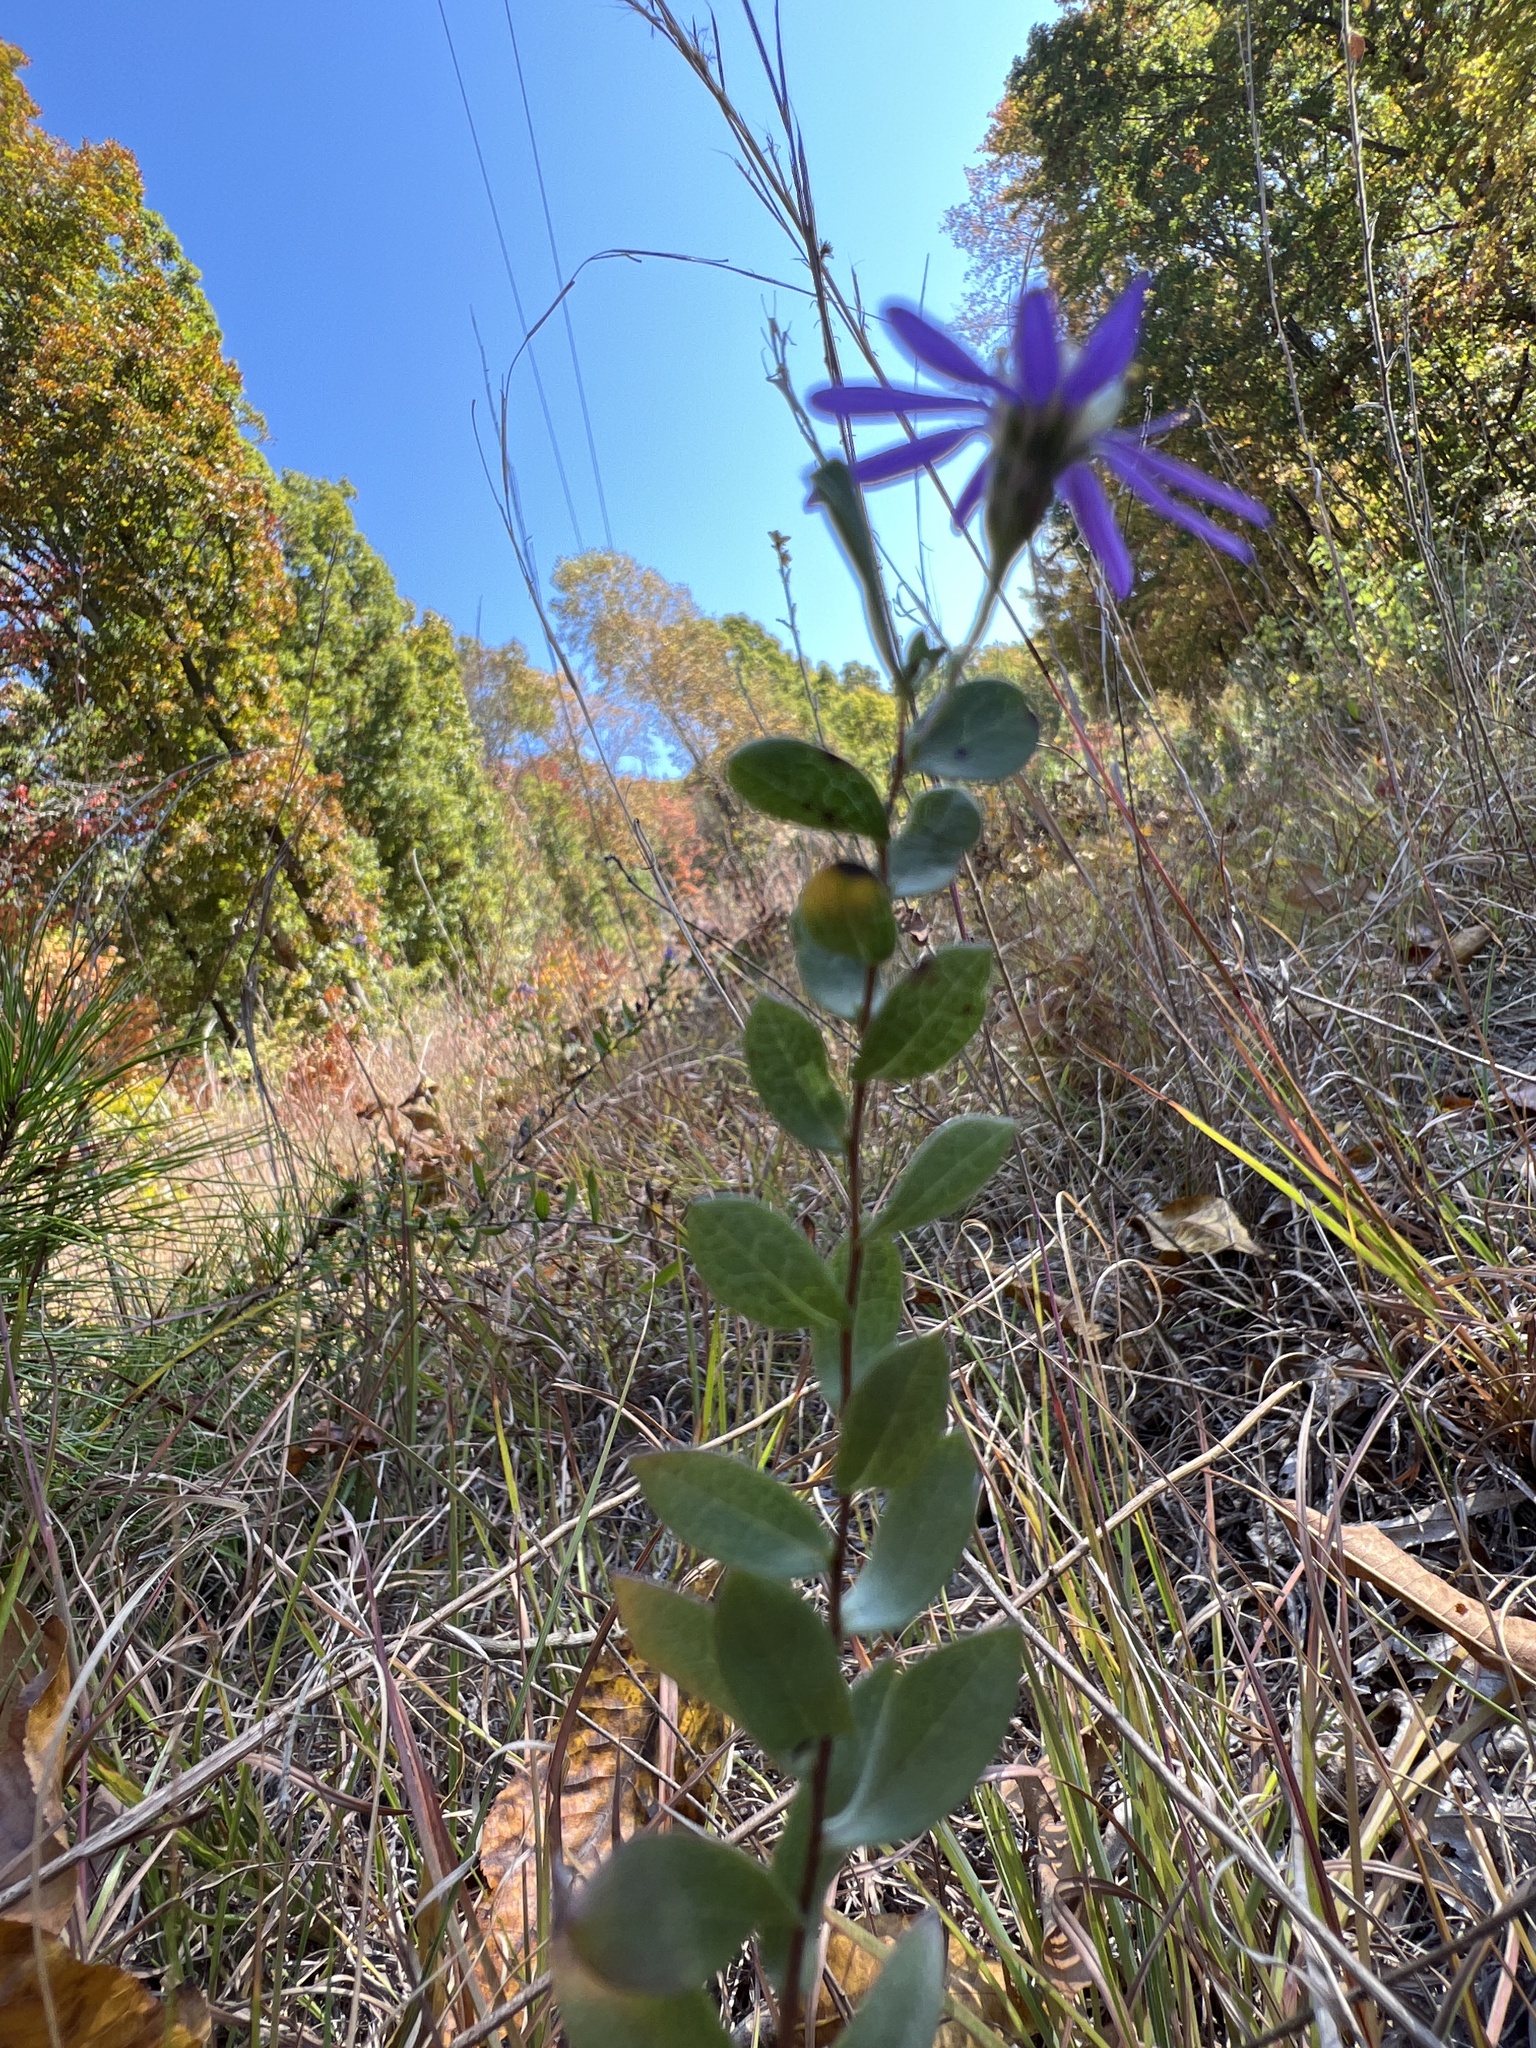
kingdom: Plantae
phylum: Tracheophyta
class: Magnoliopsida
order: Asterales
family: Asteraceae
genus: Symphyotrichum
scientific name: Symphyotrichum concolor
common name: Eastern silver aster
